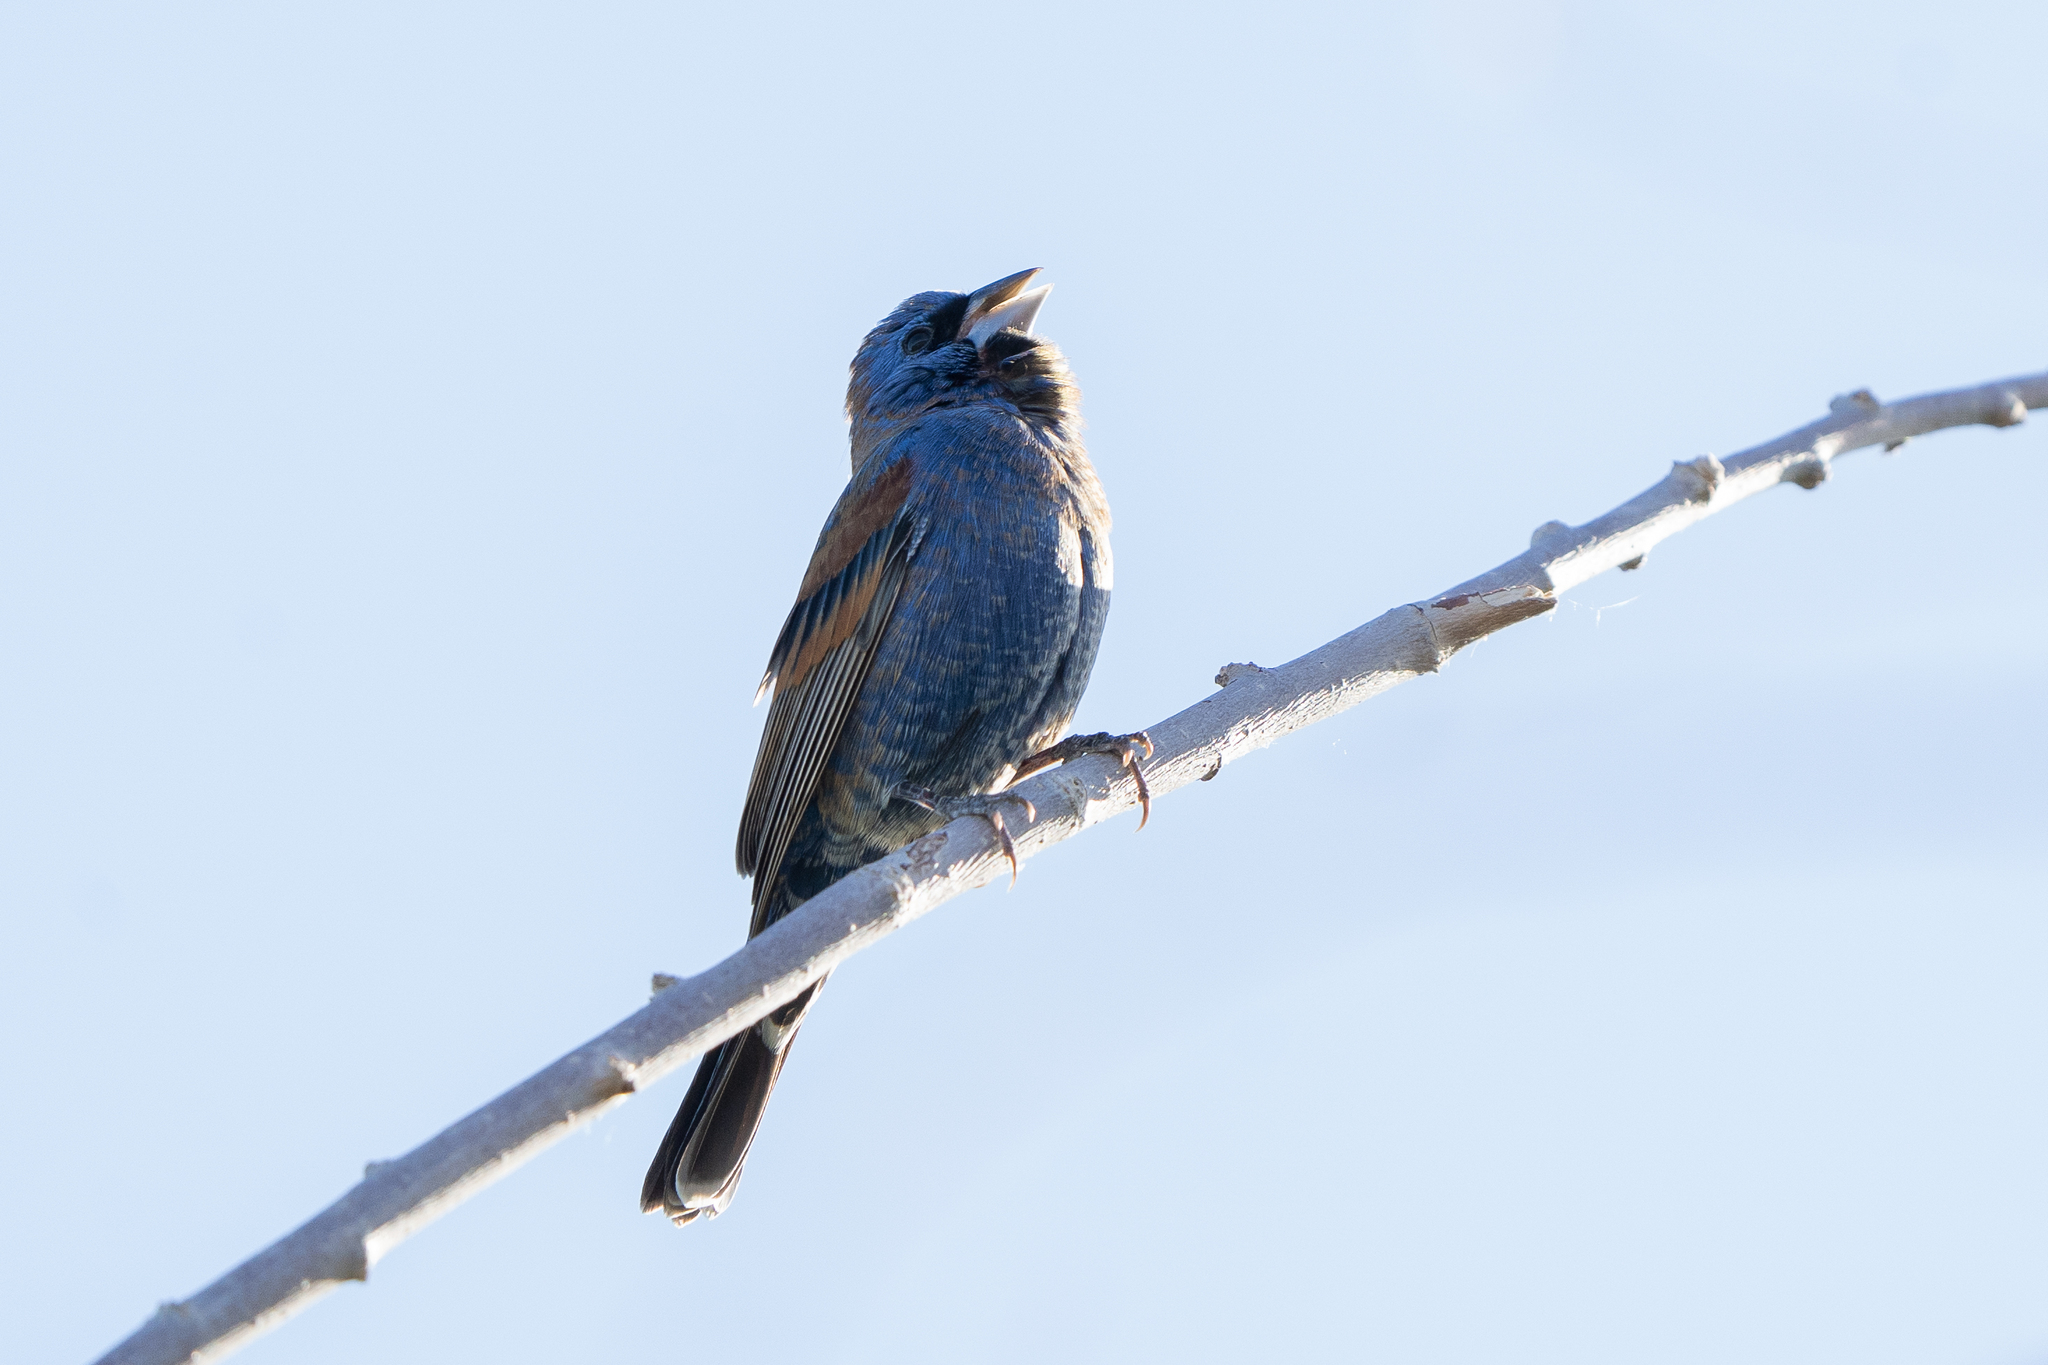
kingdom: Animalia
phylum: Chordata
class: Aves
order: Passeriformes
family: Cardinalidae
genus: Passerina
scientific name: Passerina caerulea
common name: Blue grosbeak
